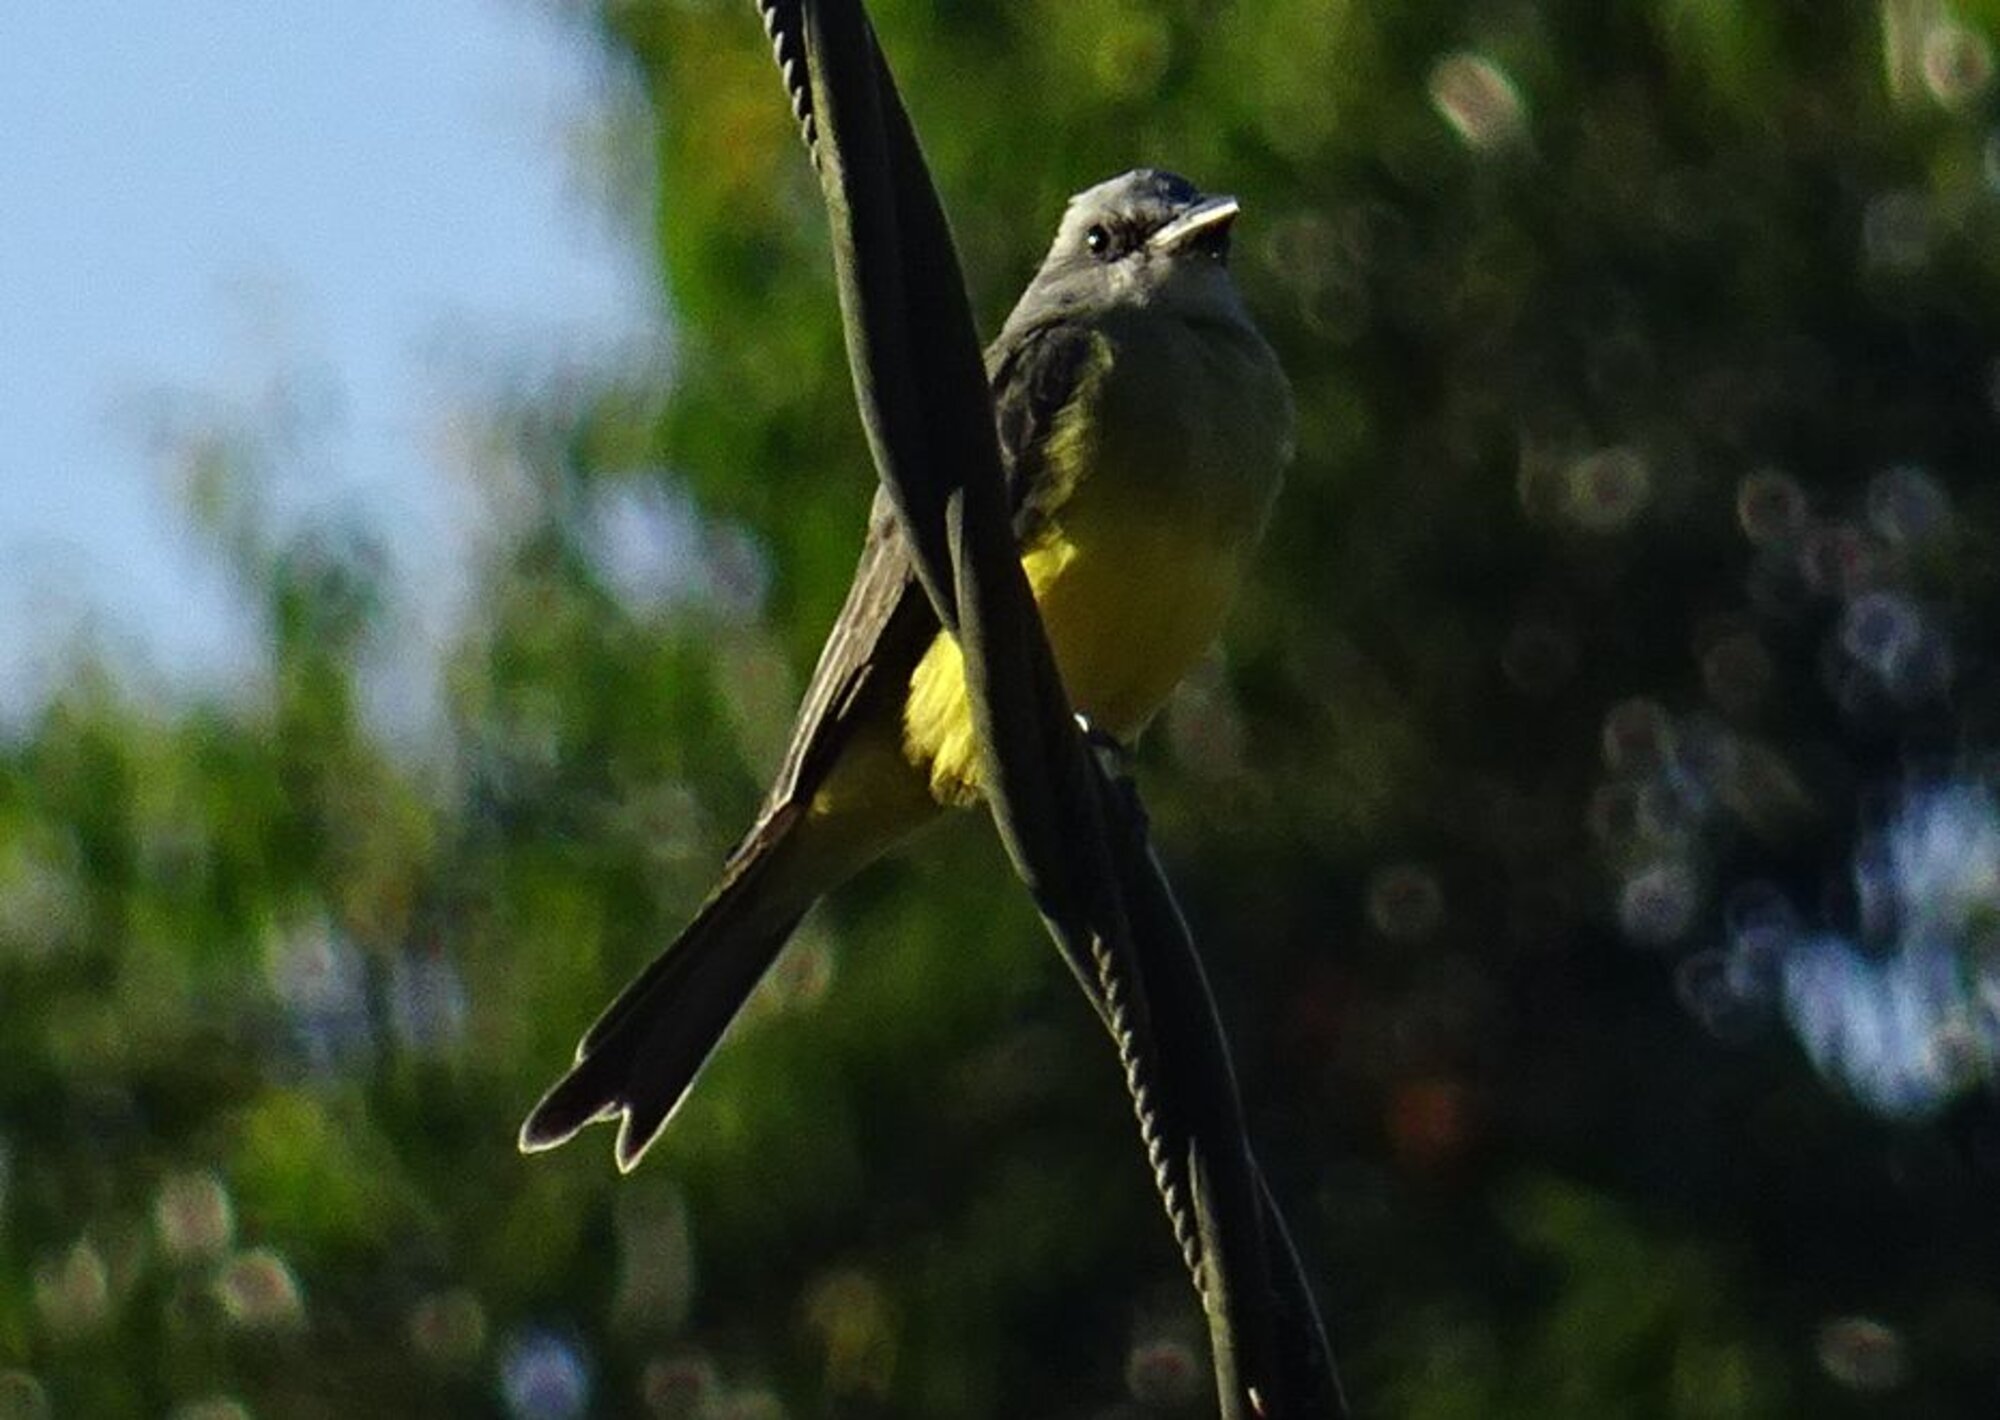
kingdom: Animalia
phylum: Chordata
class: Aves
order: Passeriformes
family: Tyrannidae
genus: Tyrannus
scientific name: Tyrannus melancholicus
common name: Tropical kingbird
